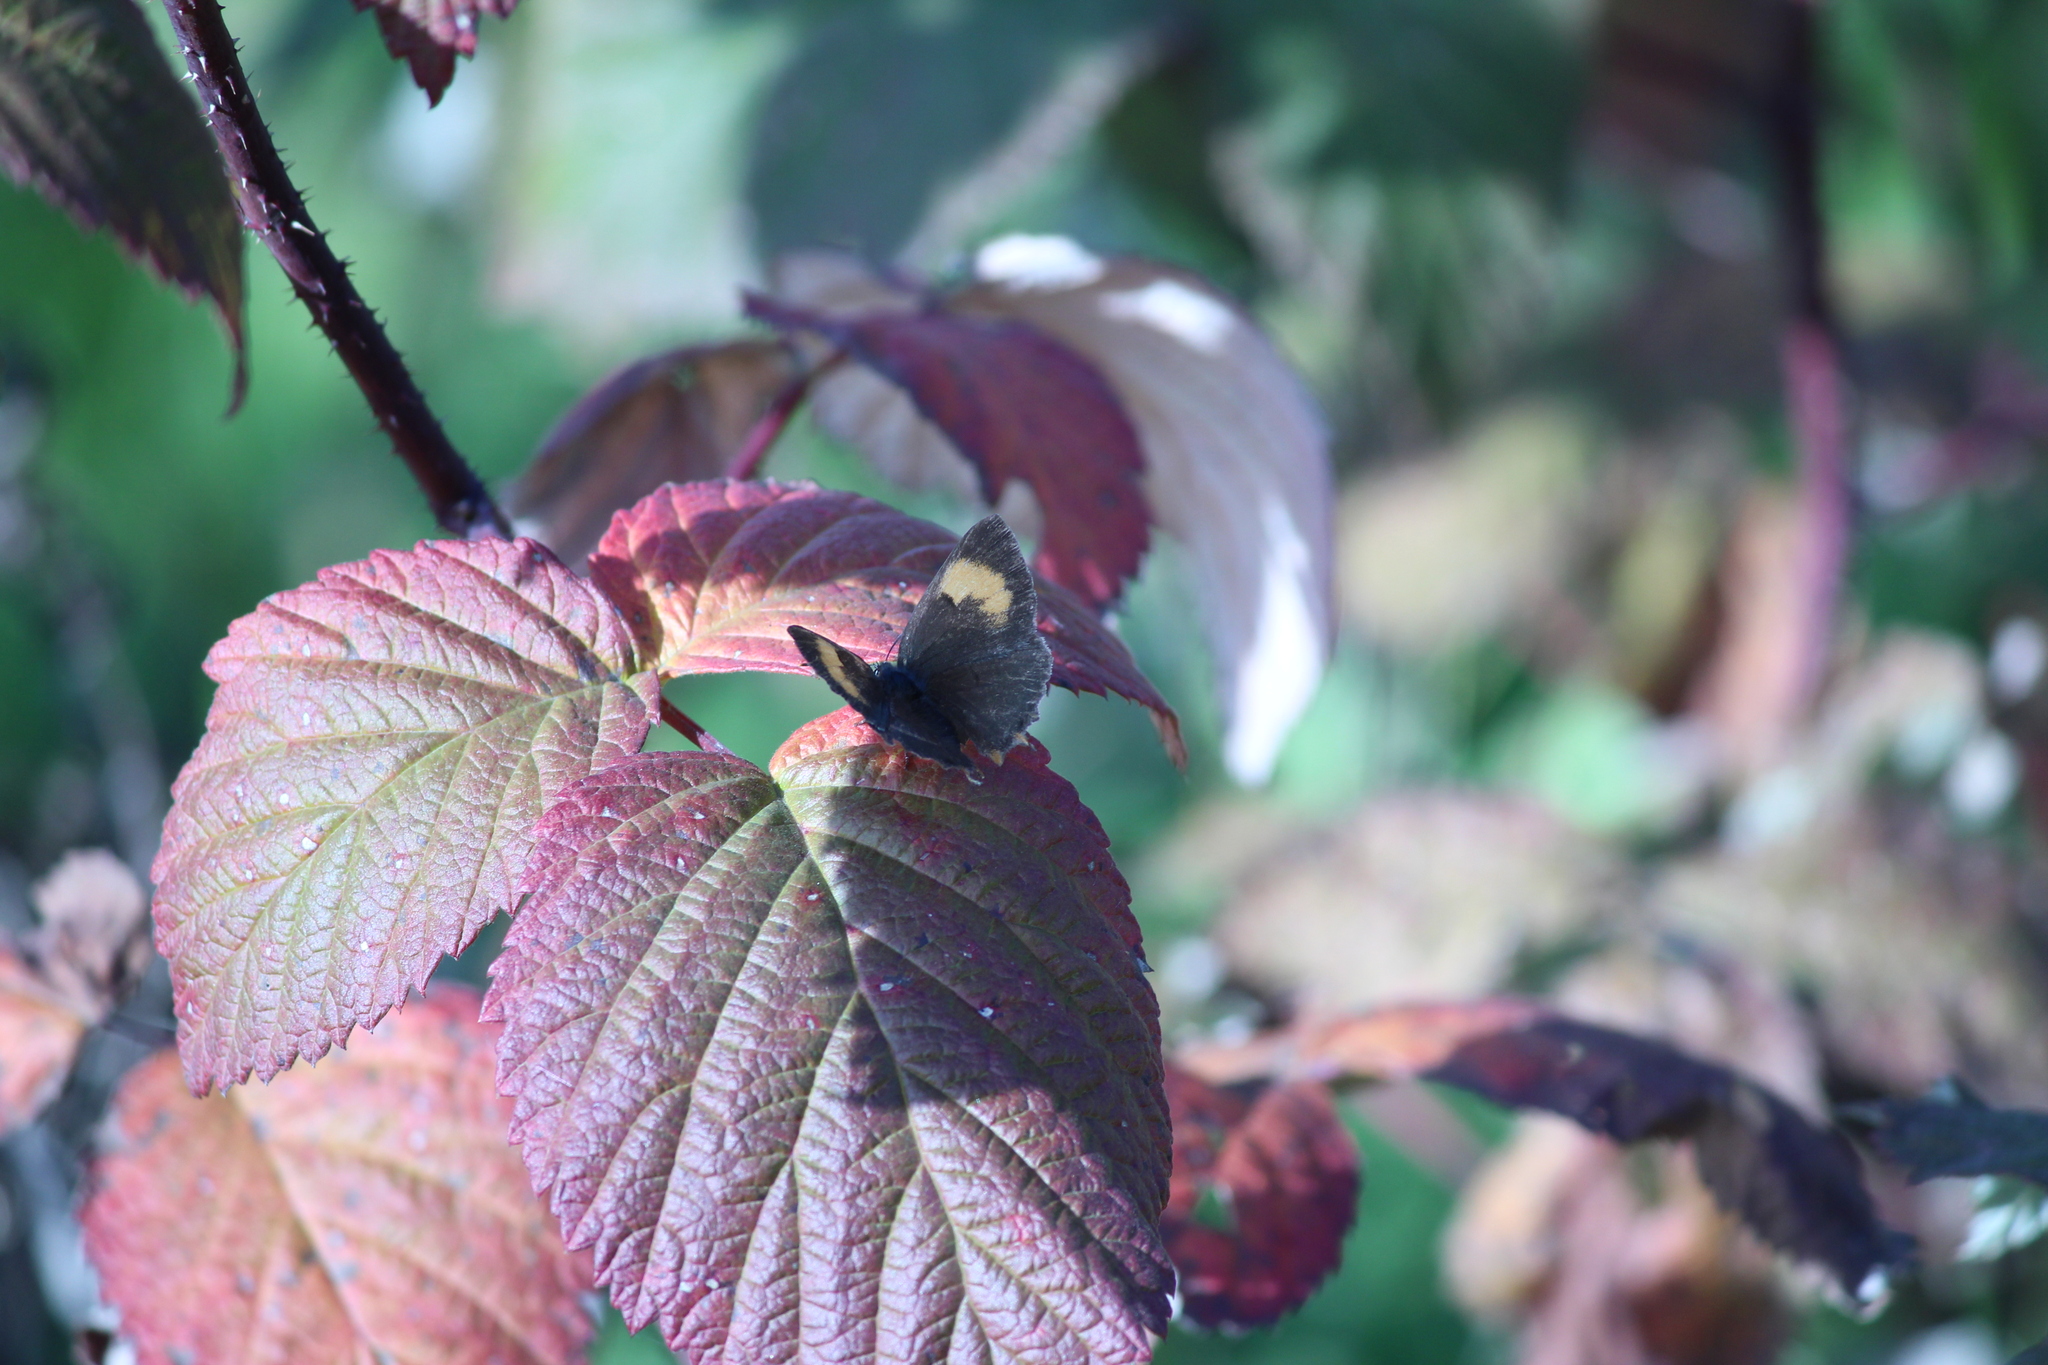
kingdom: Animalia
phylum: Arthropoda
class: Insecta
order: Lepidoptera
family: Lycaenidae
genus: Thecla
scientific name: Thecla betulae
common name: Brown hairstreak
